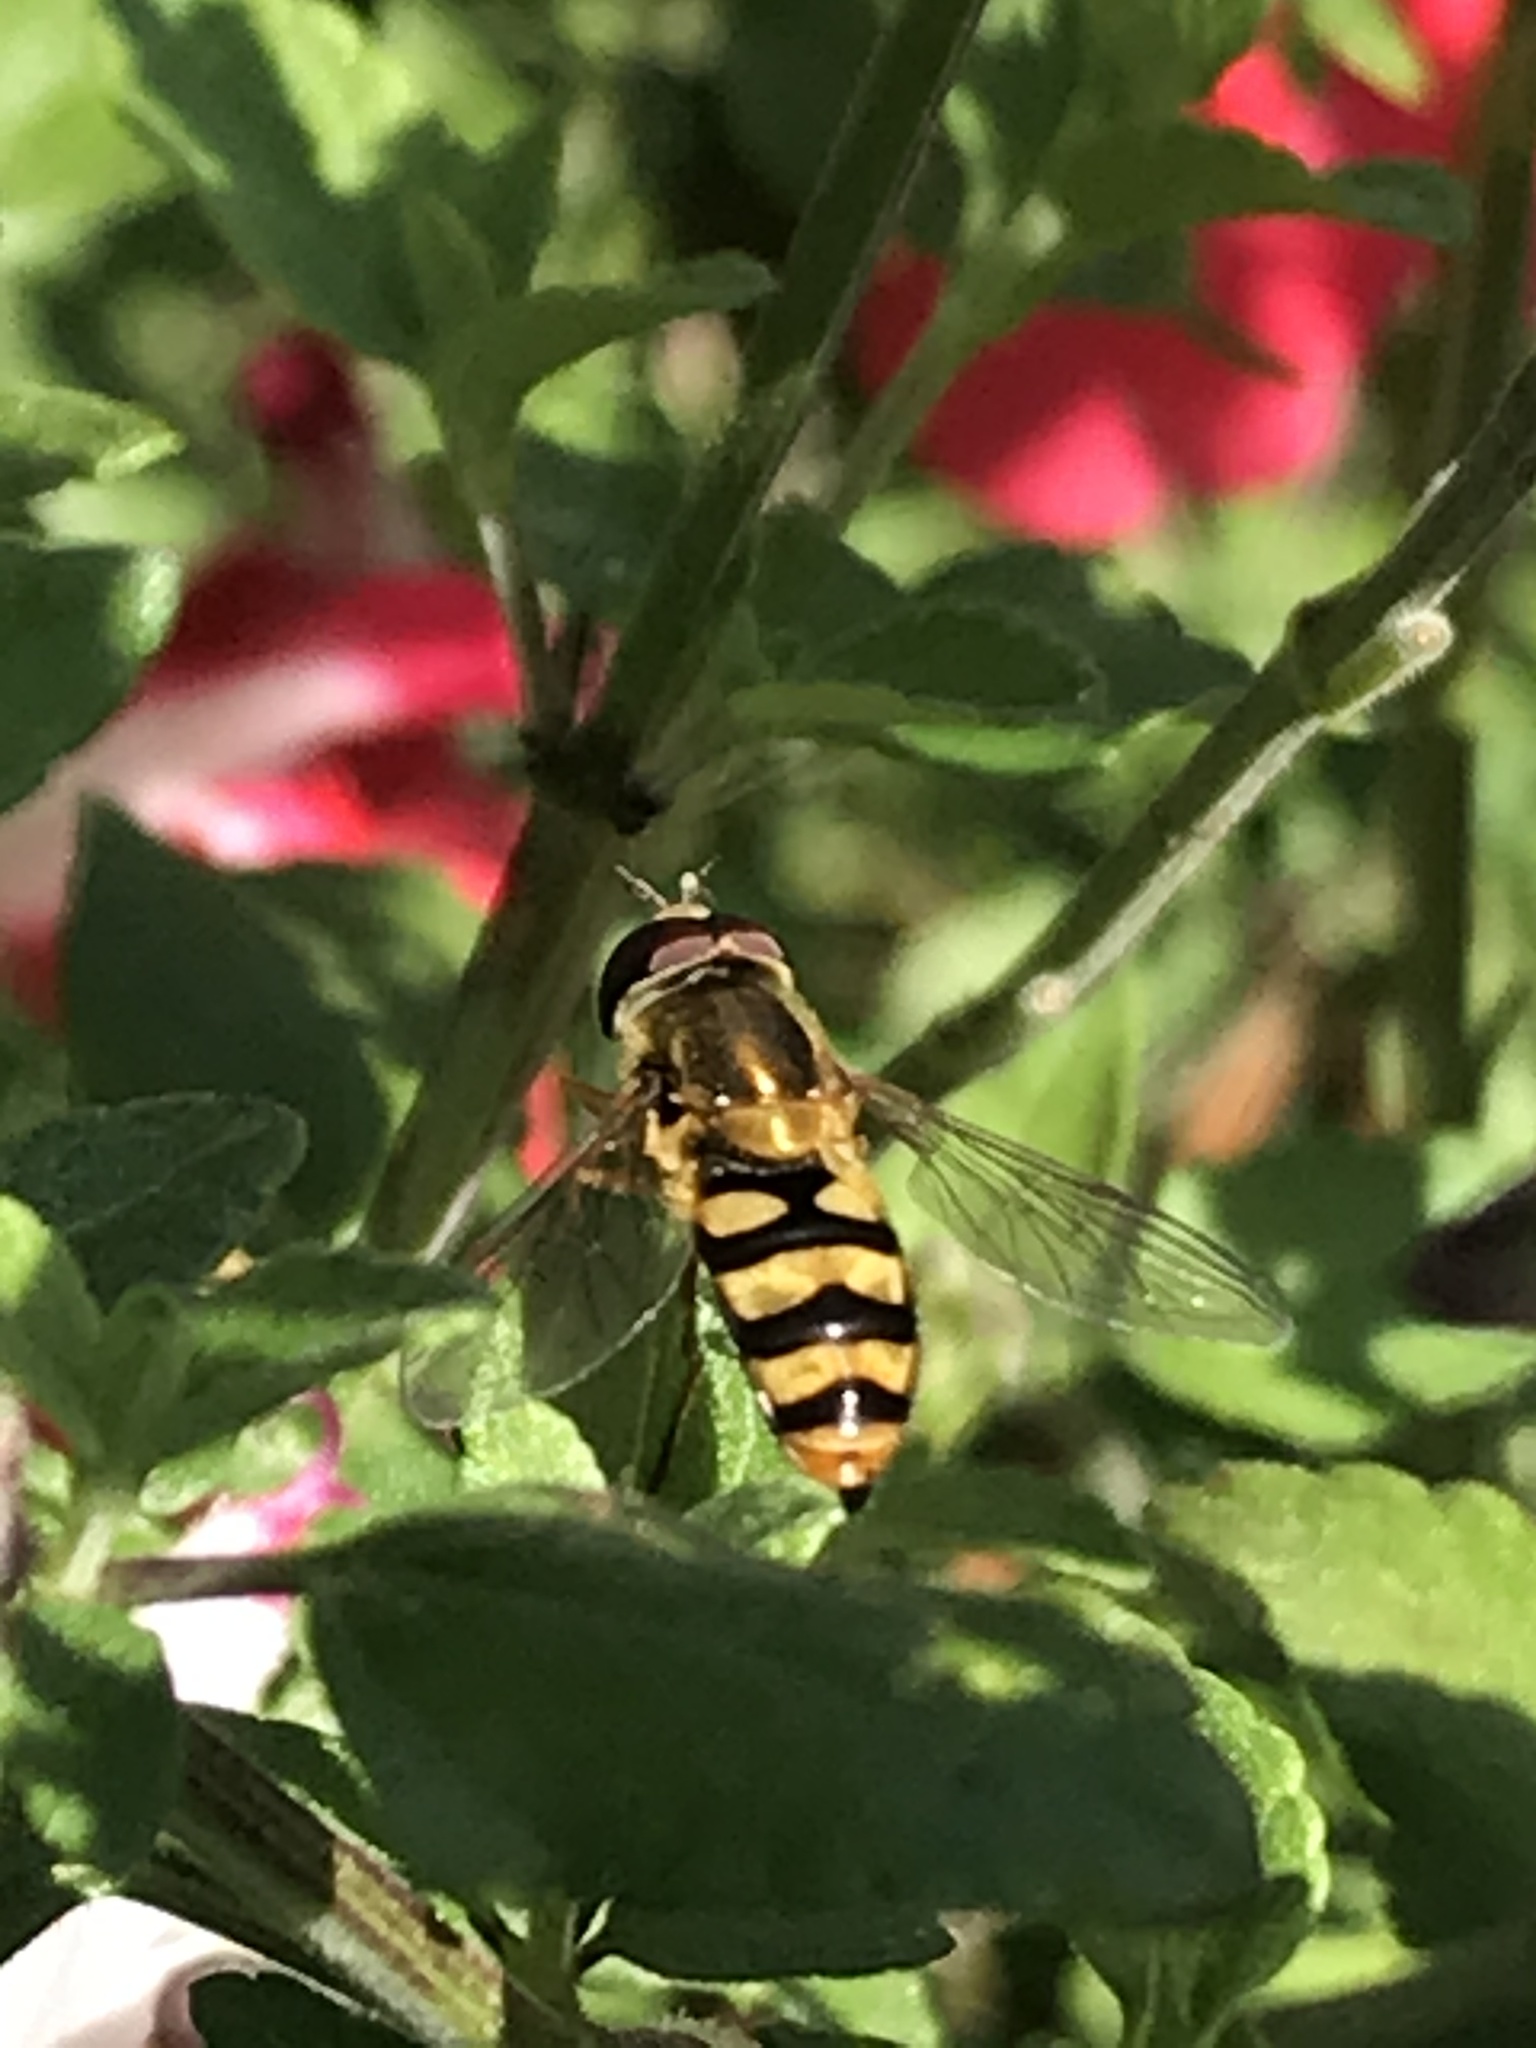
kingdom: Animalia
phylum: Arthropoda
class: Insecta
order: Diptera
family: Syrphidae
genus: Eupeodes
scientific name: Eupeodes fumipennis
